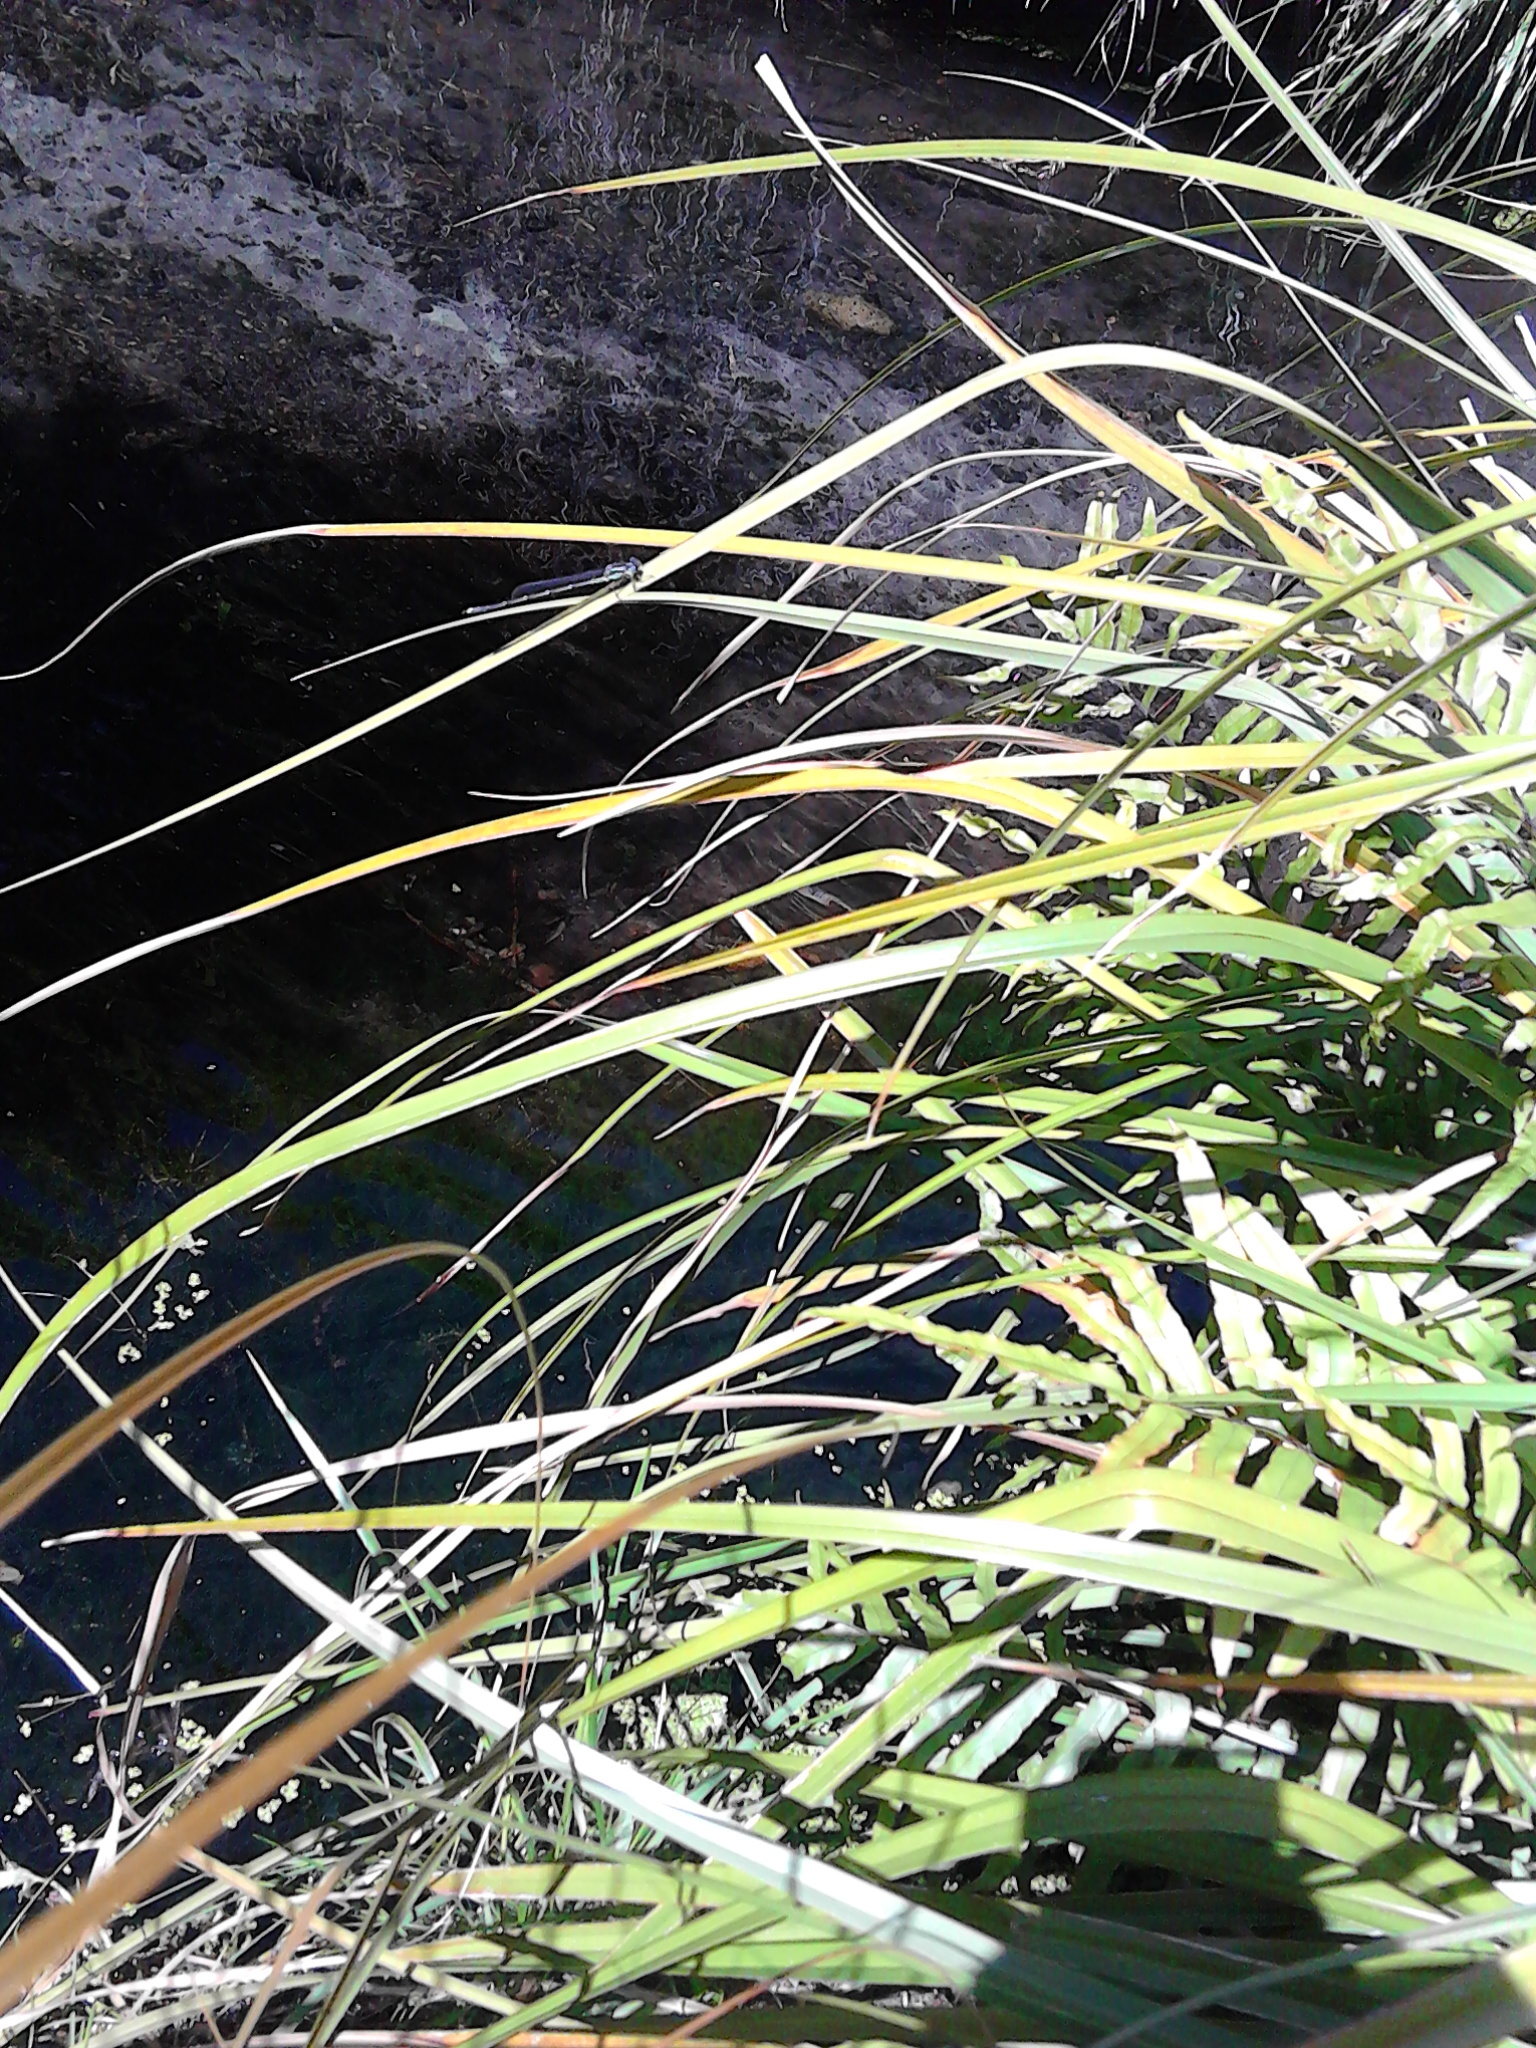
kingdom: Animalia
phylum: Arthropoda
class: Insecta
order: Odonata
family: Lestidae
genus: Austrolestes
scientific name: Austrolestes colensonis
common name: Blue damselfly
